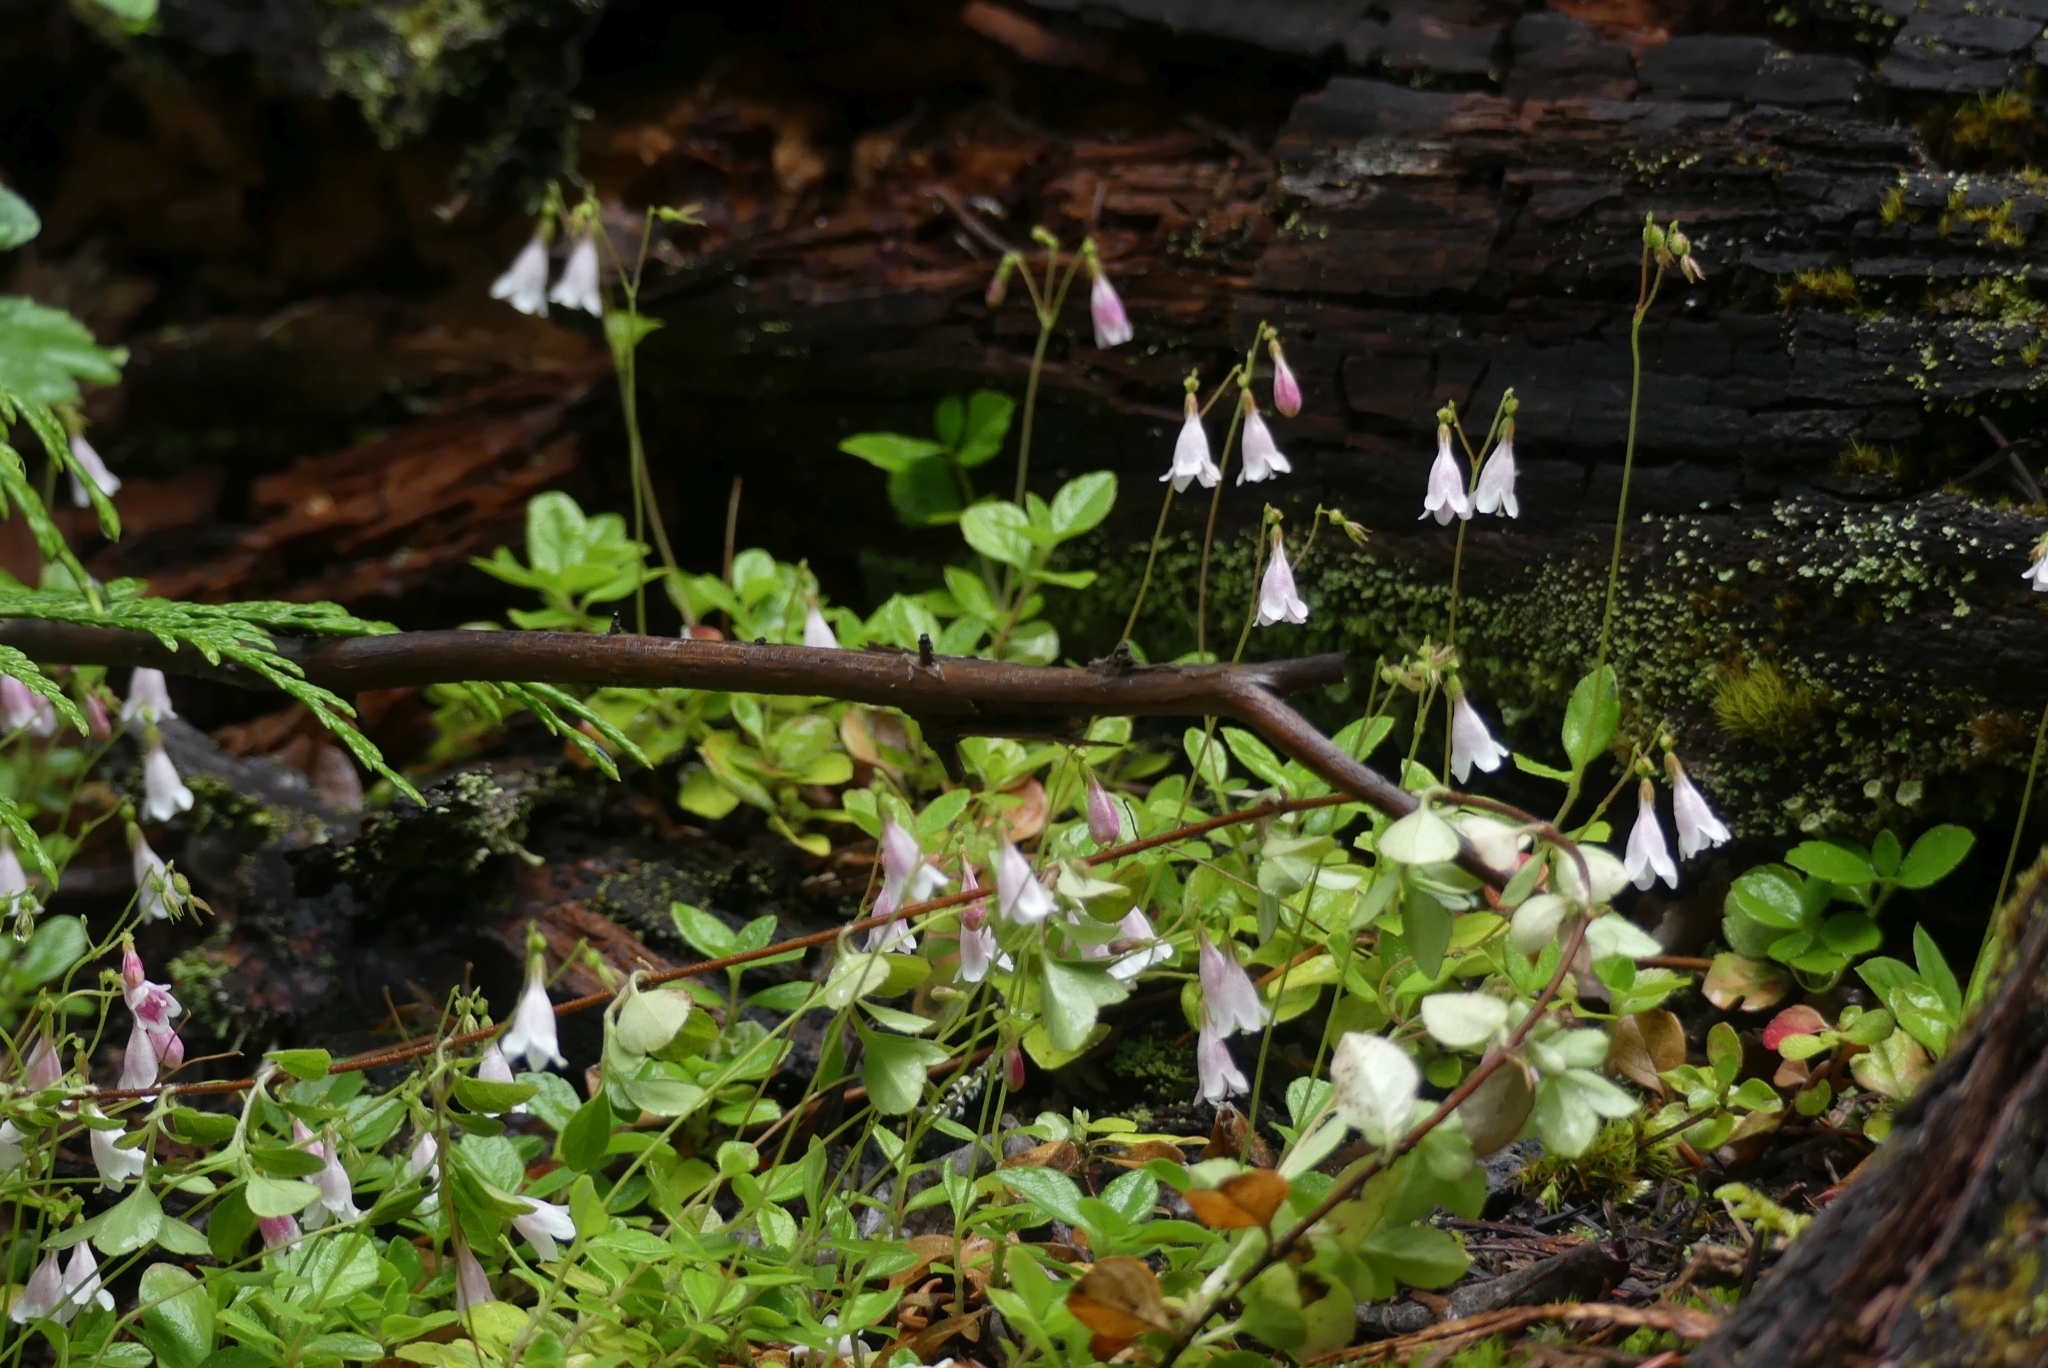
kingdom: Plantae
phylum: Tracheophyta
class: Magnoliopsida
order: Dipsacales
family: Caprifoliaceae
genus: Linnaea
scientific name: Linnaea borealis
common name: Twinflower
